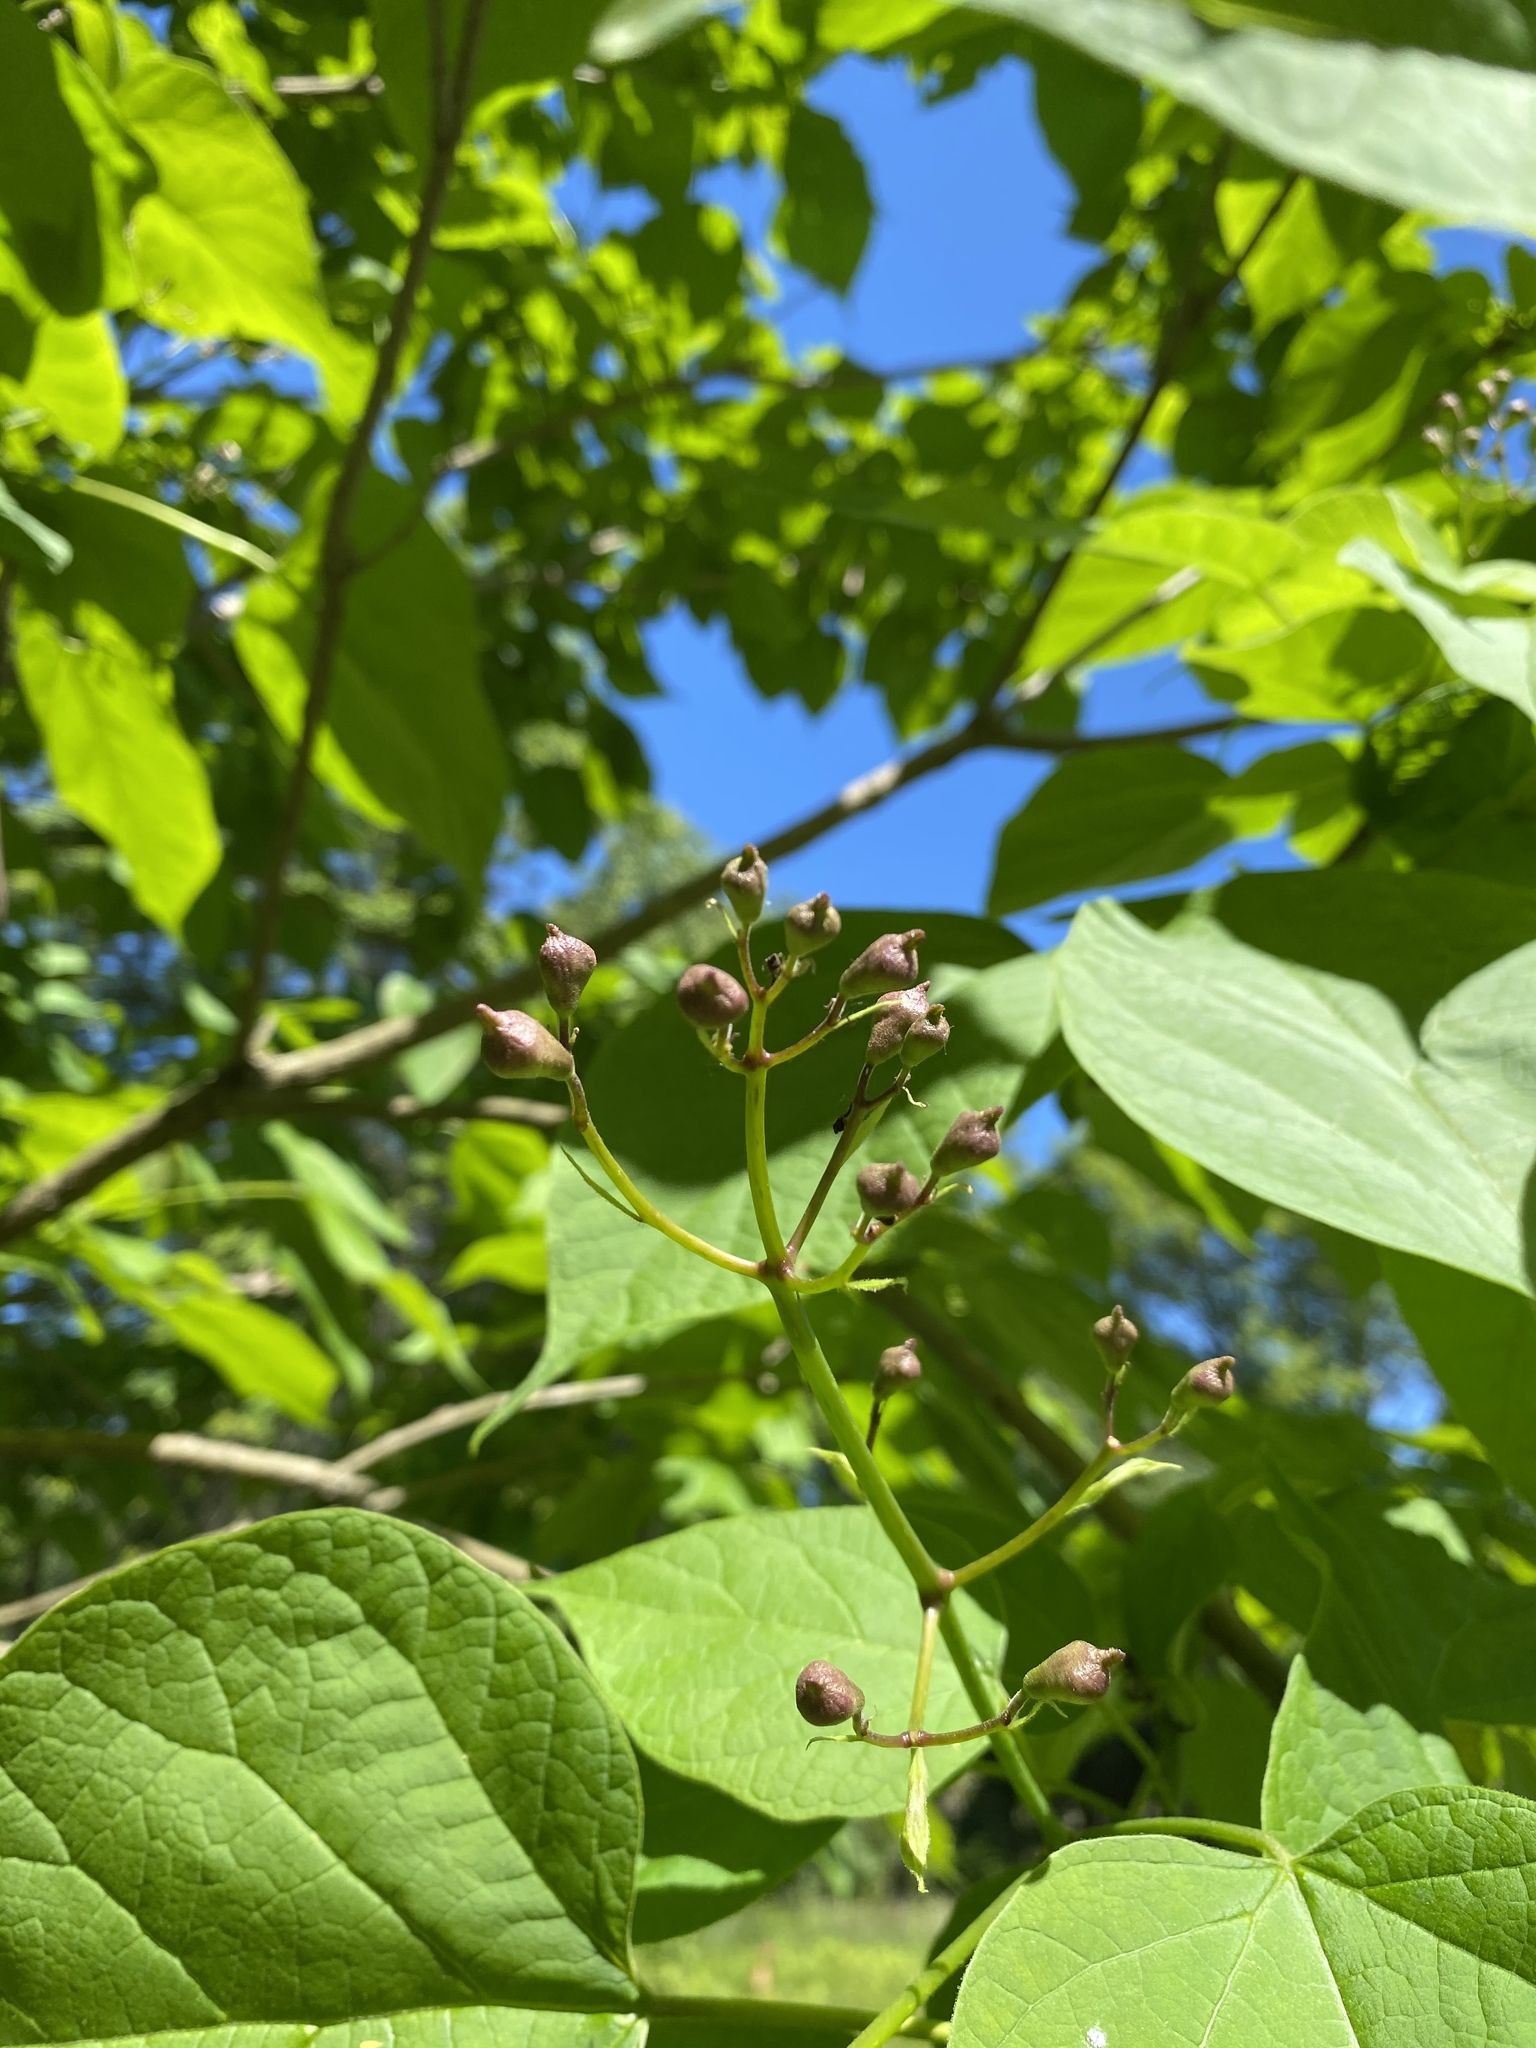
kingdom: Plantae
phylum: Tracheophyta
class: Magnoliopsida
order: Lamiales
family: Bignoniaceae
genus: Catalpa
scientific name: Catalpa speciosa
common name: Northern catalpa
